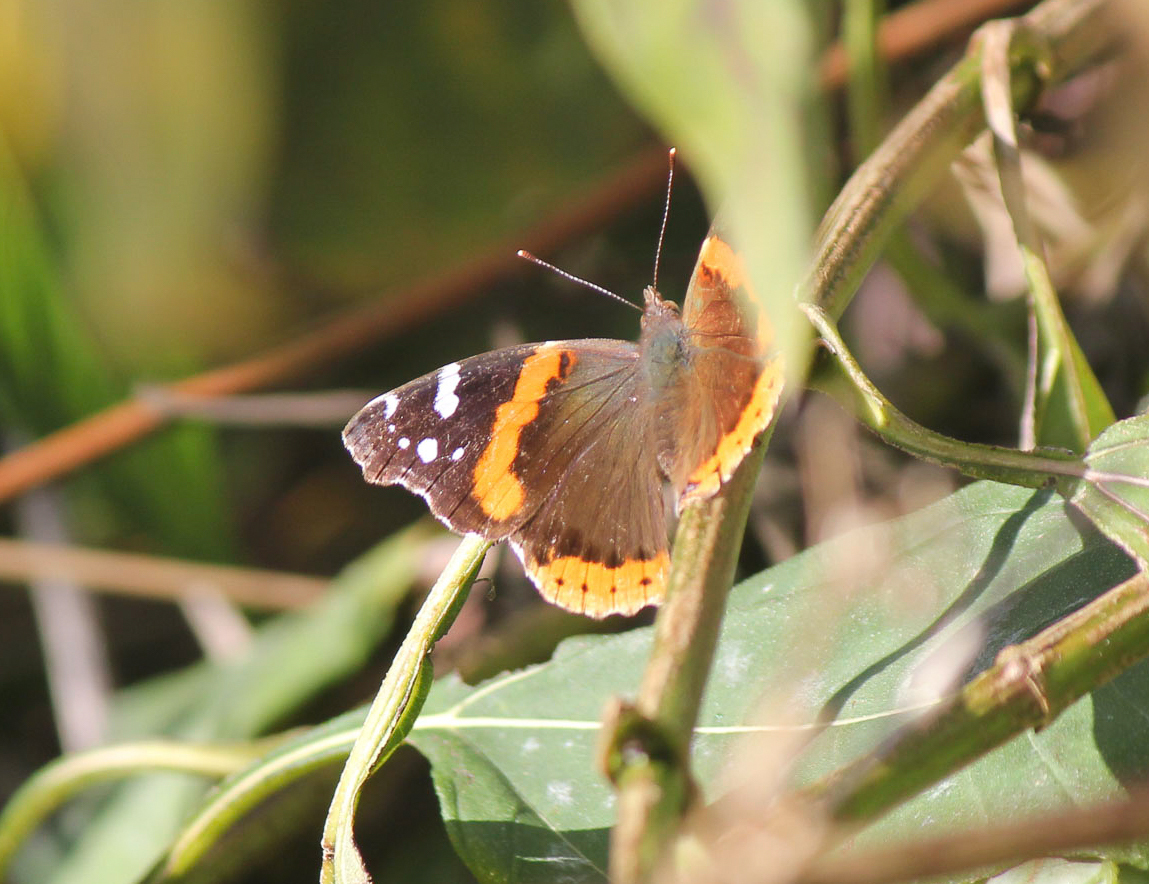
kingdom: Animalia
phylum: Arthropoda
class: Insecta
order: Lepidoptera
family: Nymphalidae
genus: Vanessa
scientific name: Vanessa atalanta
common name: Red admiral
